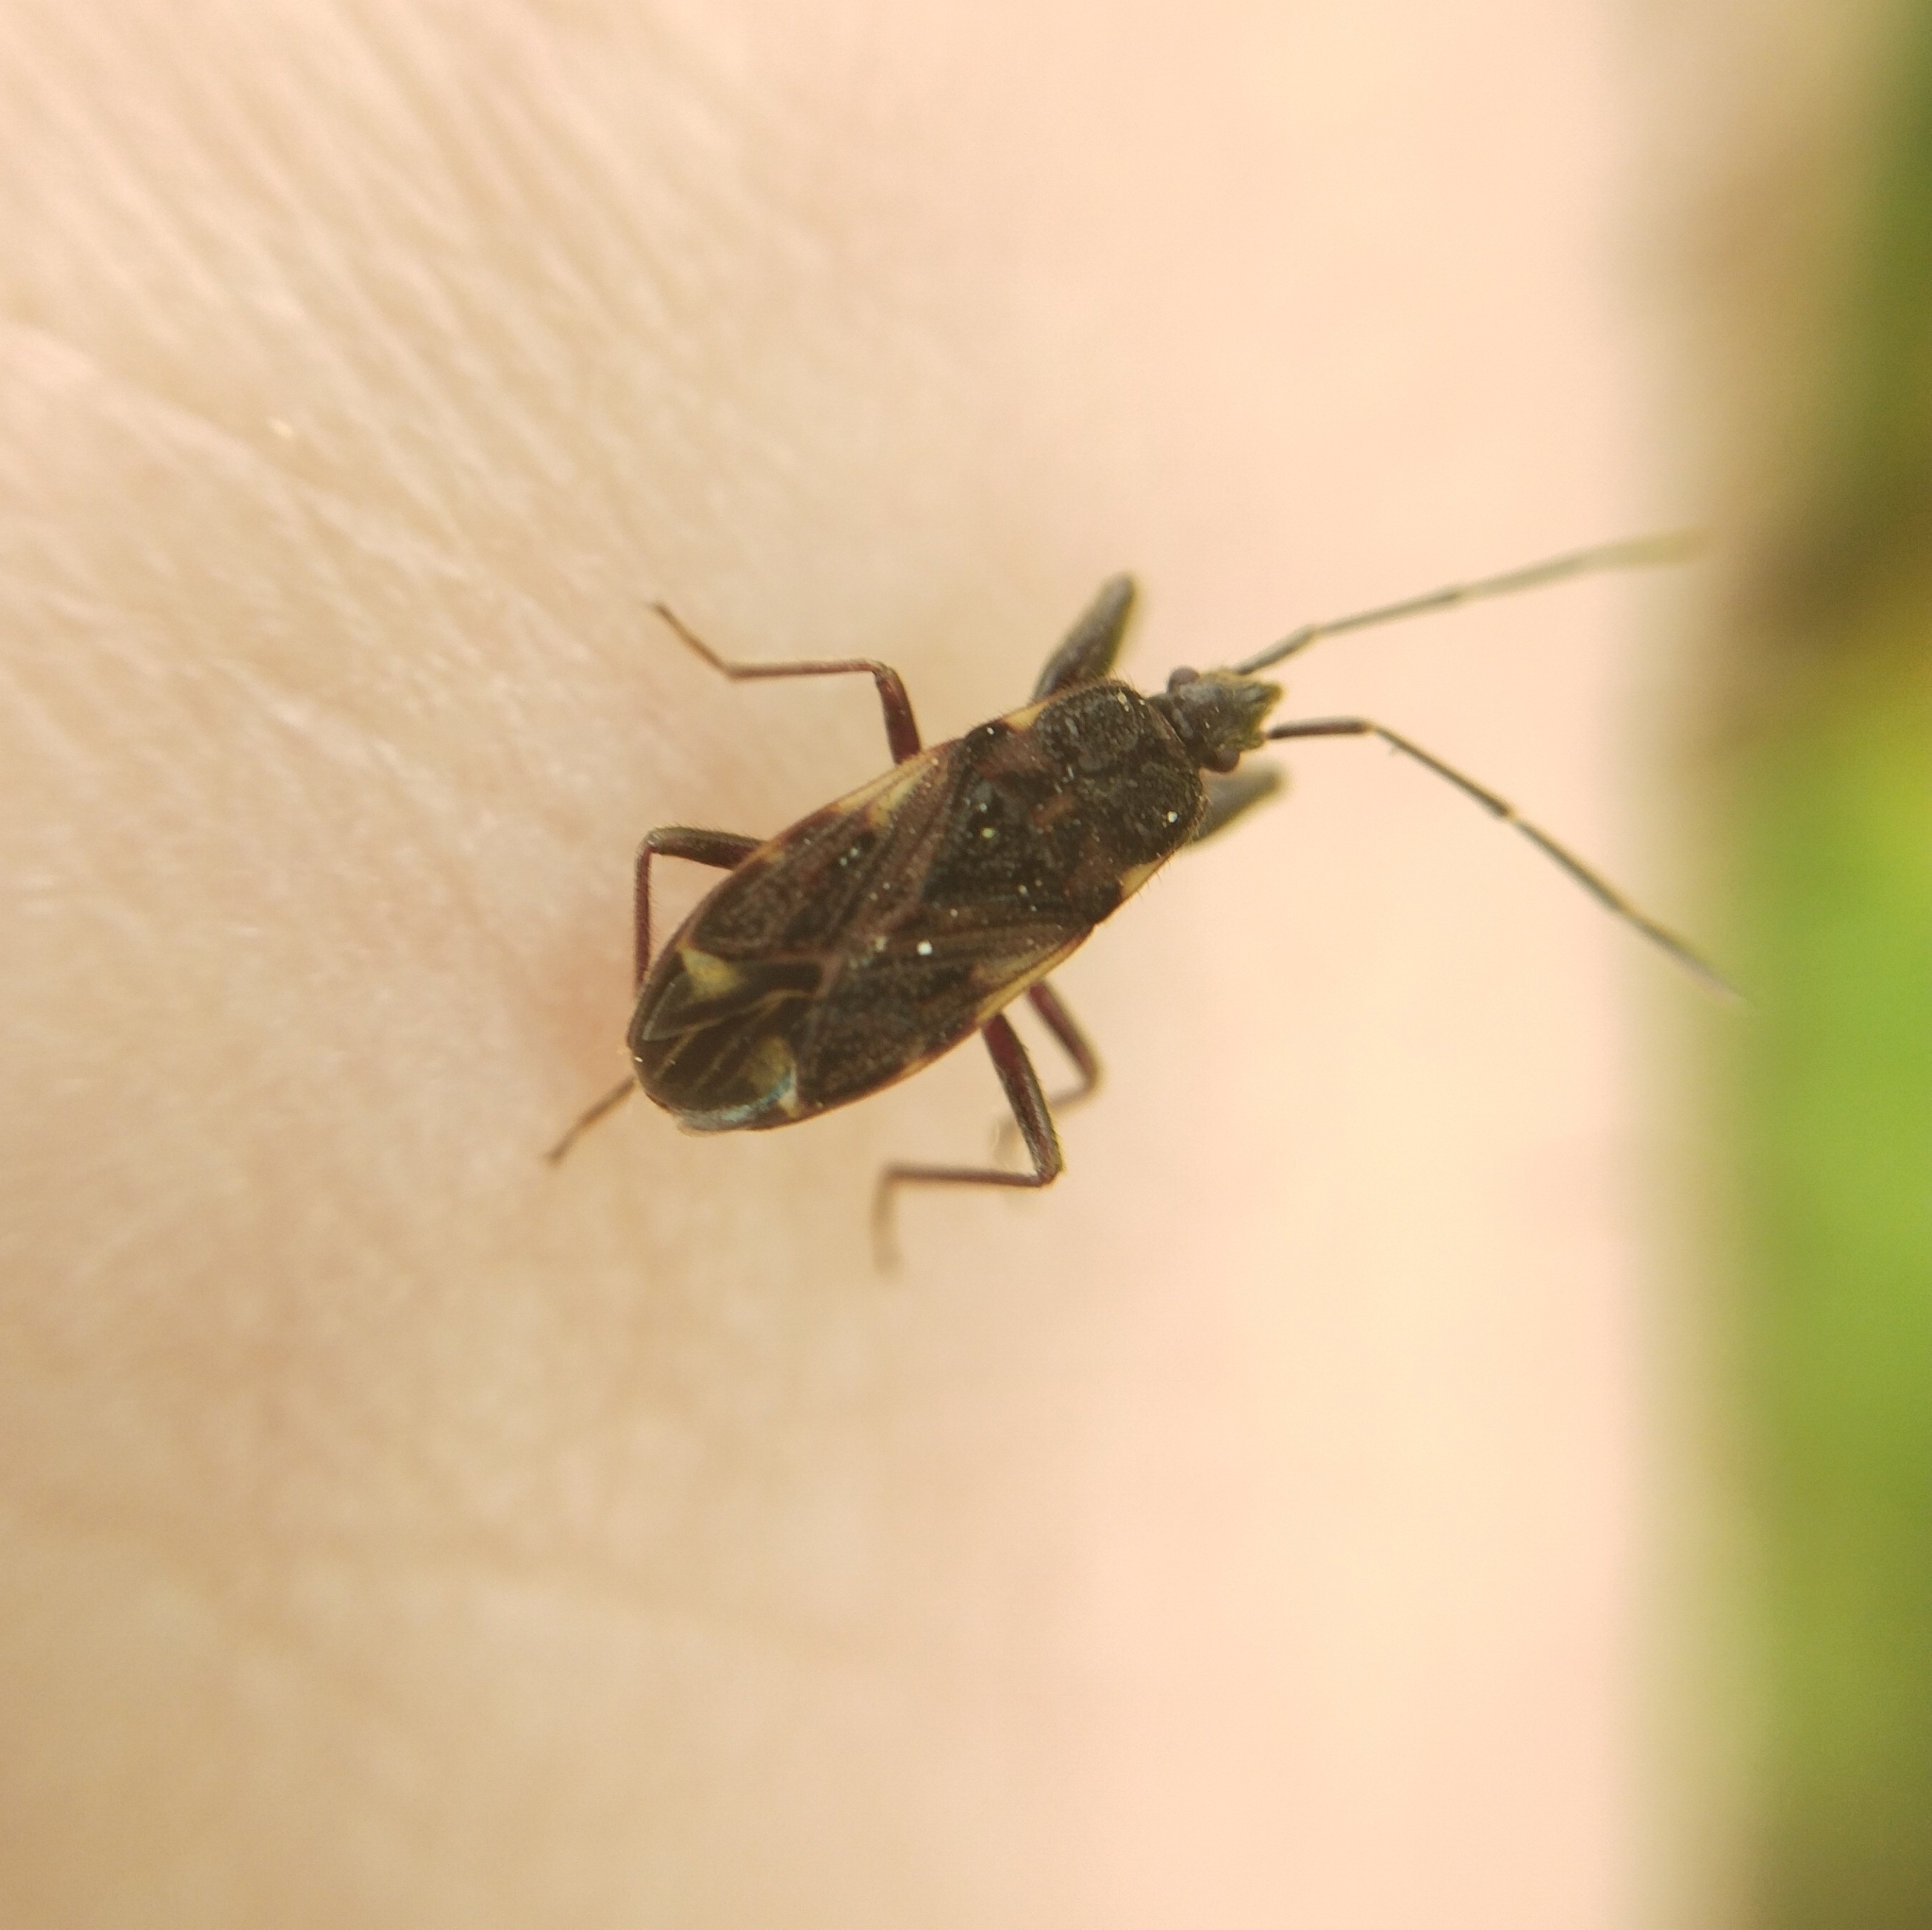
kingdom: Animalia
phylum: Arthropoda
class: Insecta
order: Hemiptera
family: Rhyparochromidae
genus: Eremocoris
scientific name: Eremocoris podagricus
